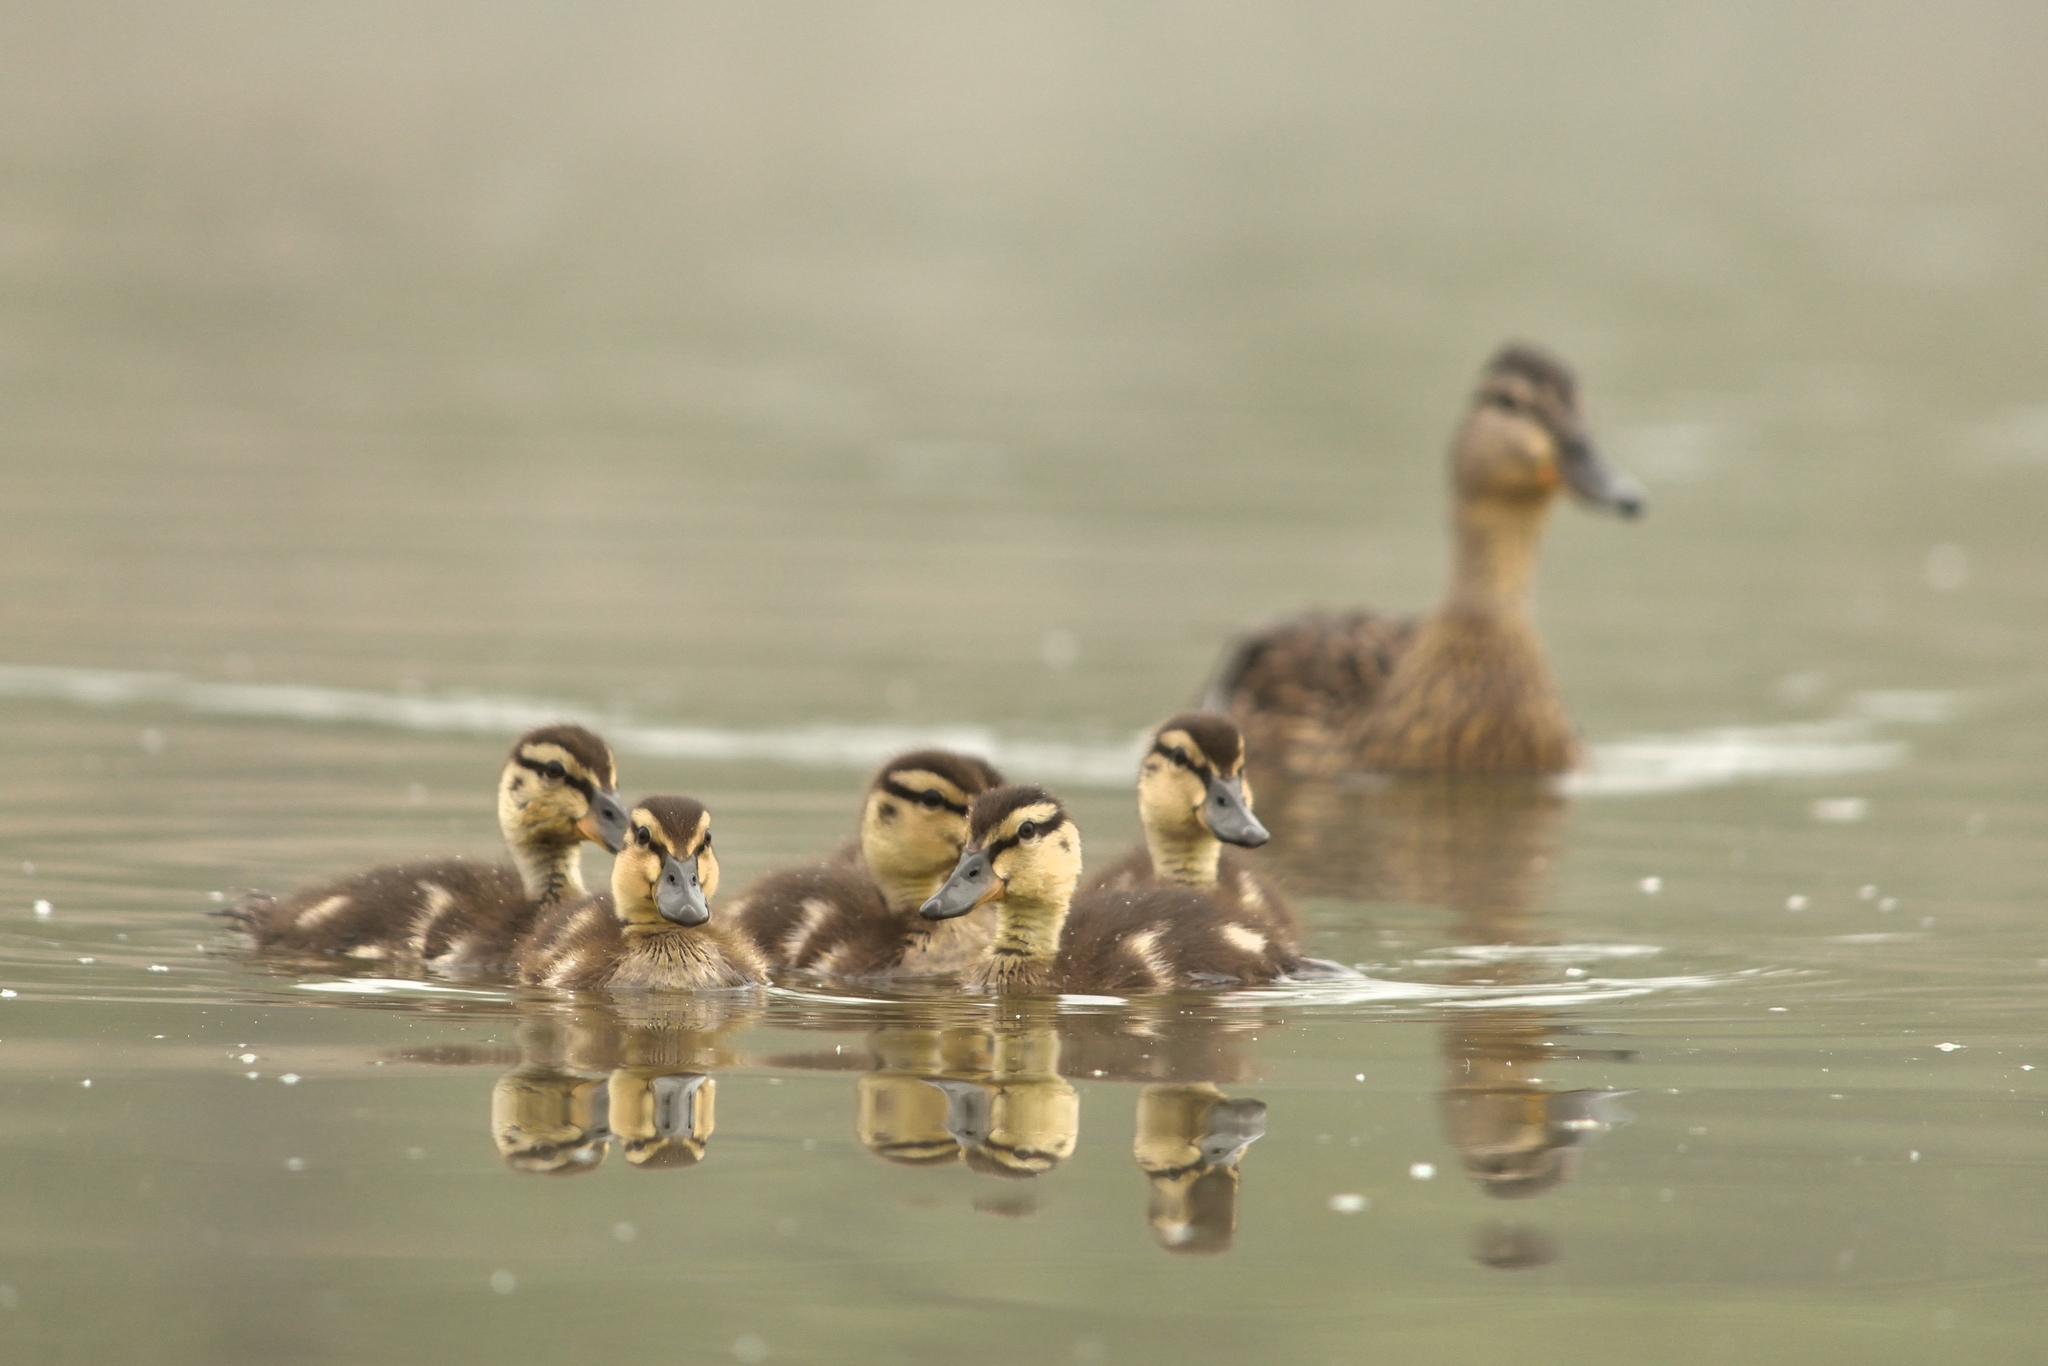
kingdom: Animalia
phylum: Chordata
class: Aves
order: Anseriformes
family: Anatidae
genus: Anas
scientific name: Anas platyrhynchos
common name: Mallard
